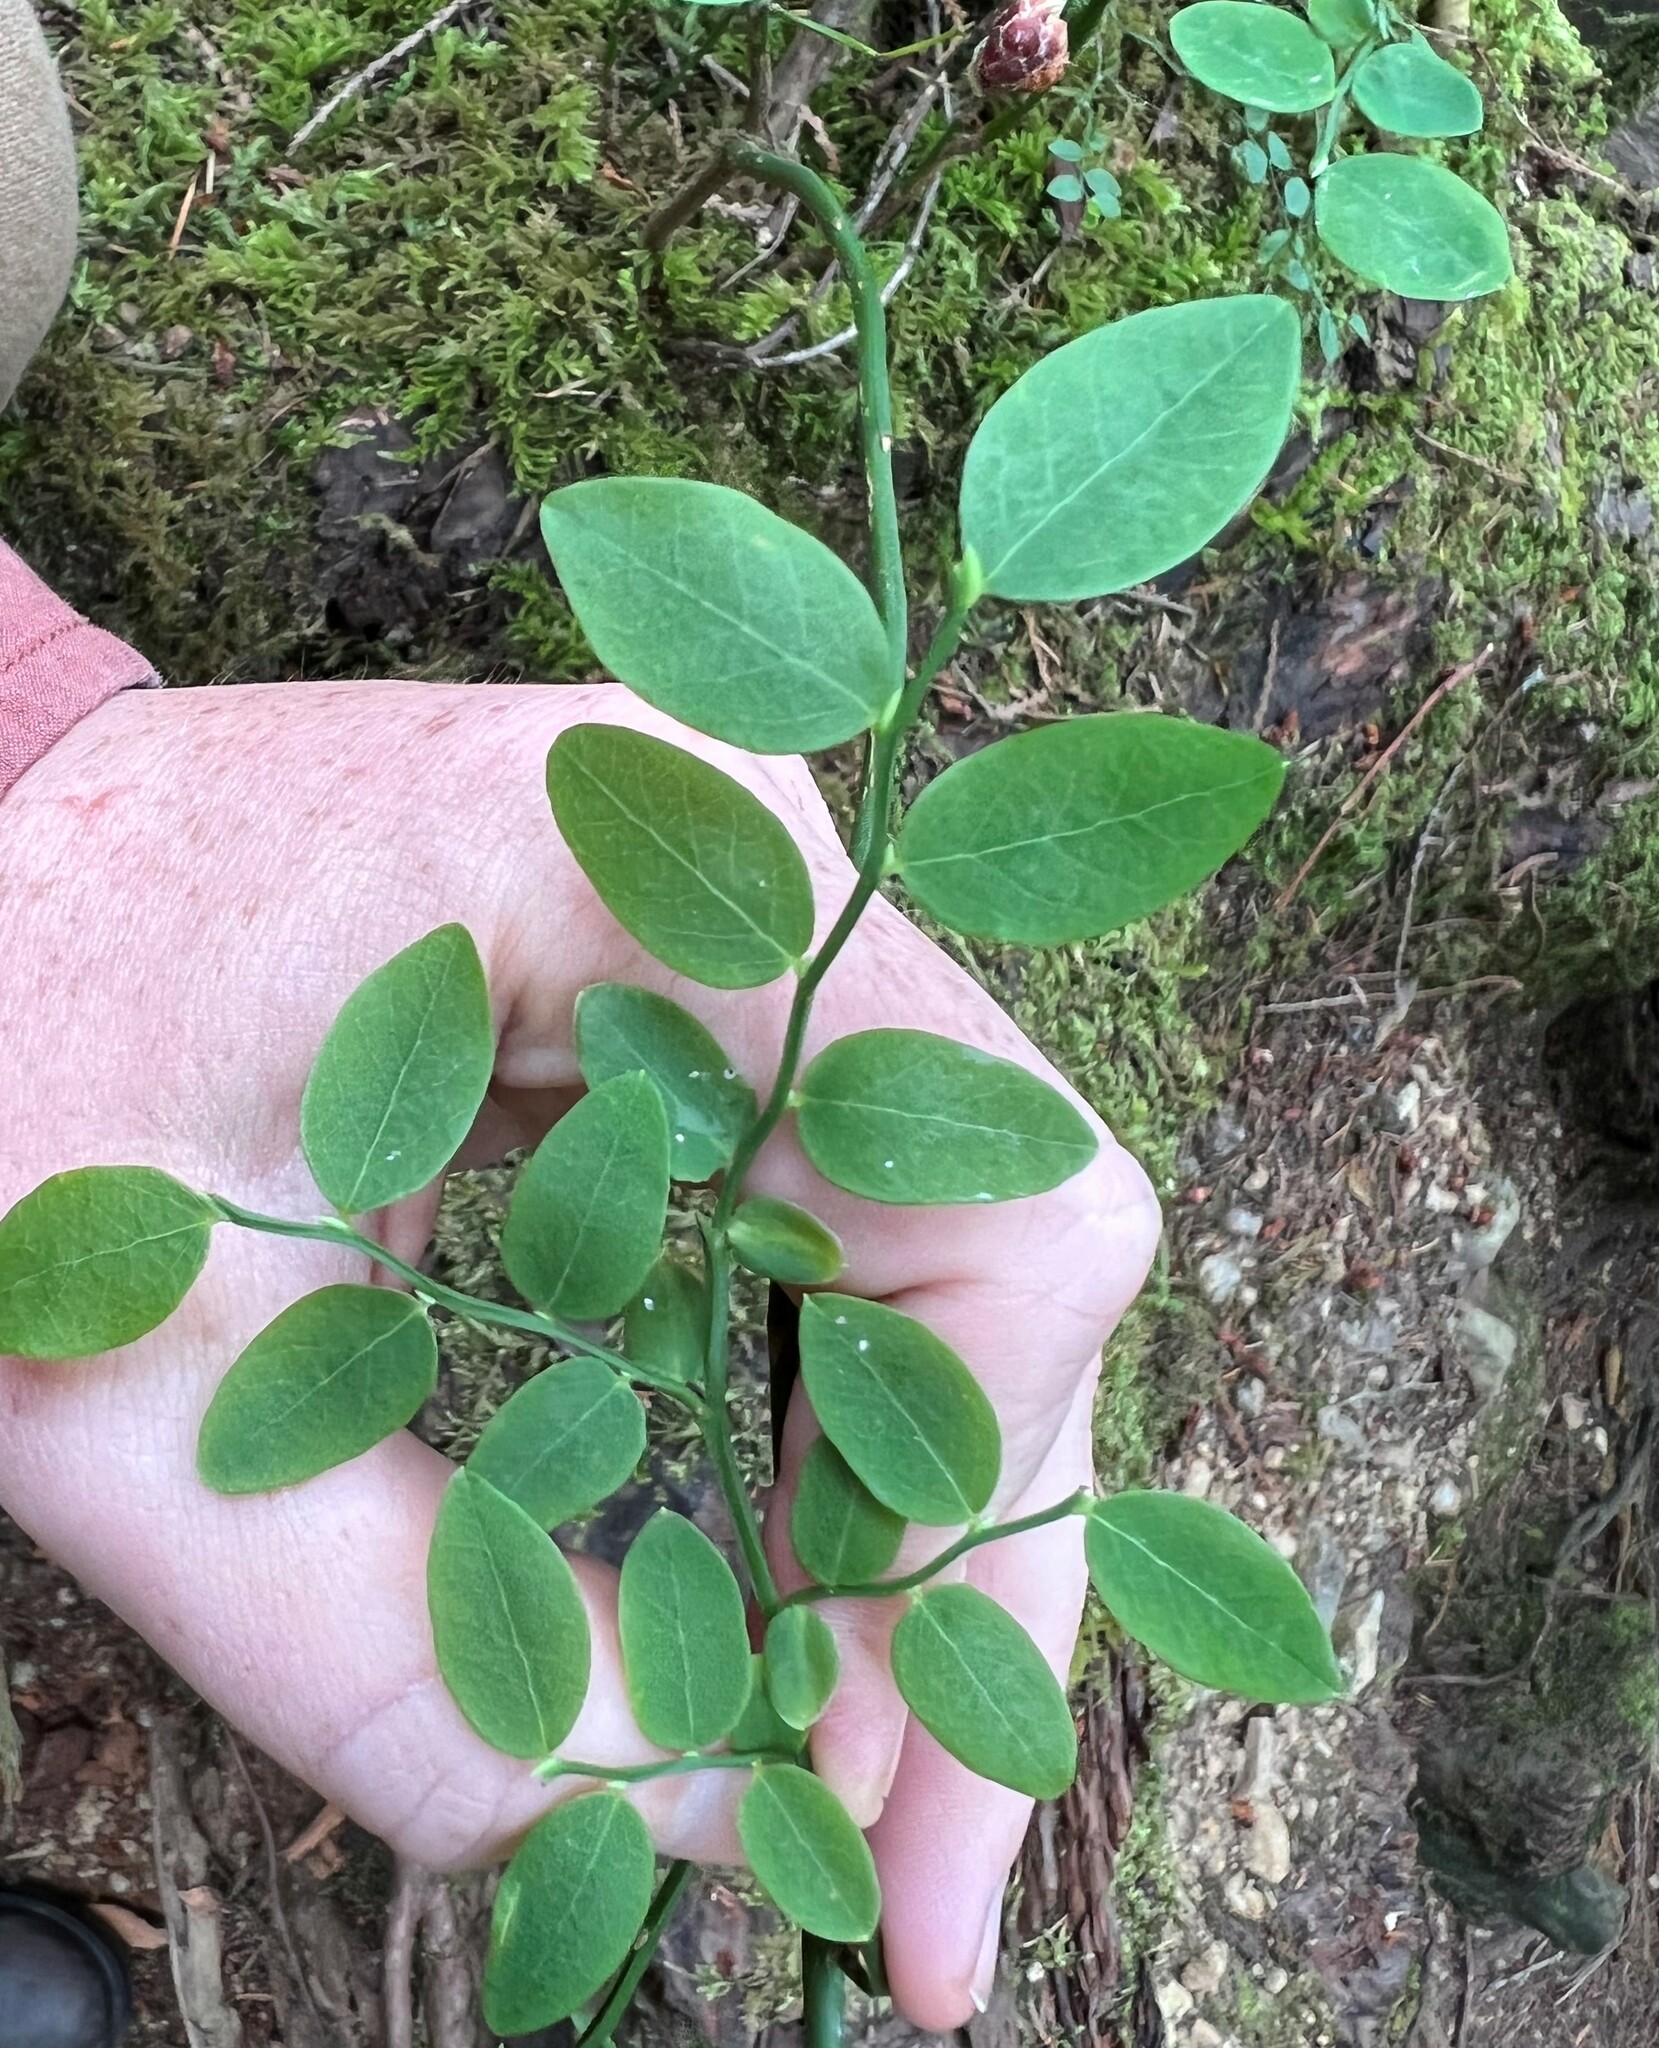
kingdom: Plantae
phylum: Tracheophyta
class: Magnoliopsida
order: Ericales
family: Ericaceae
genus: Vaccinium
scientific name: Vaccinium parvifolium
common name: Red-huckleberry
